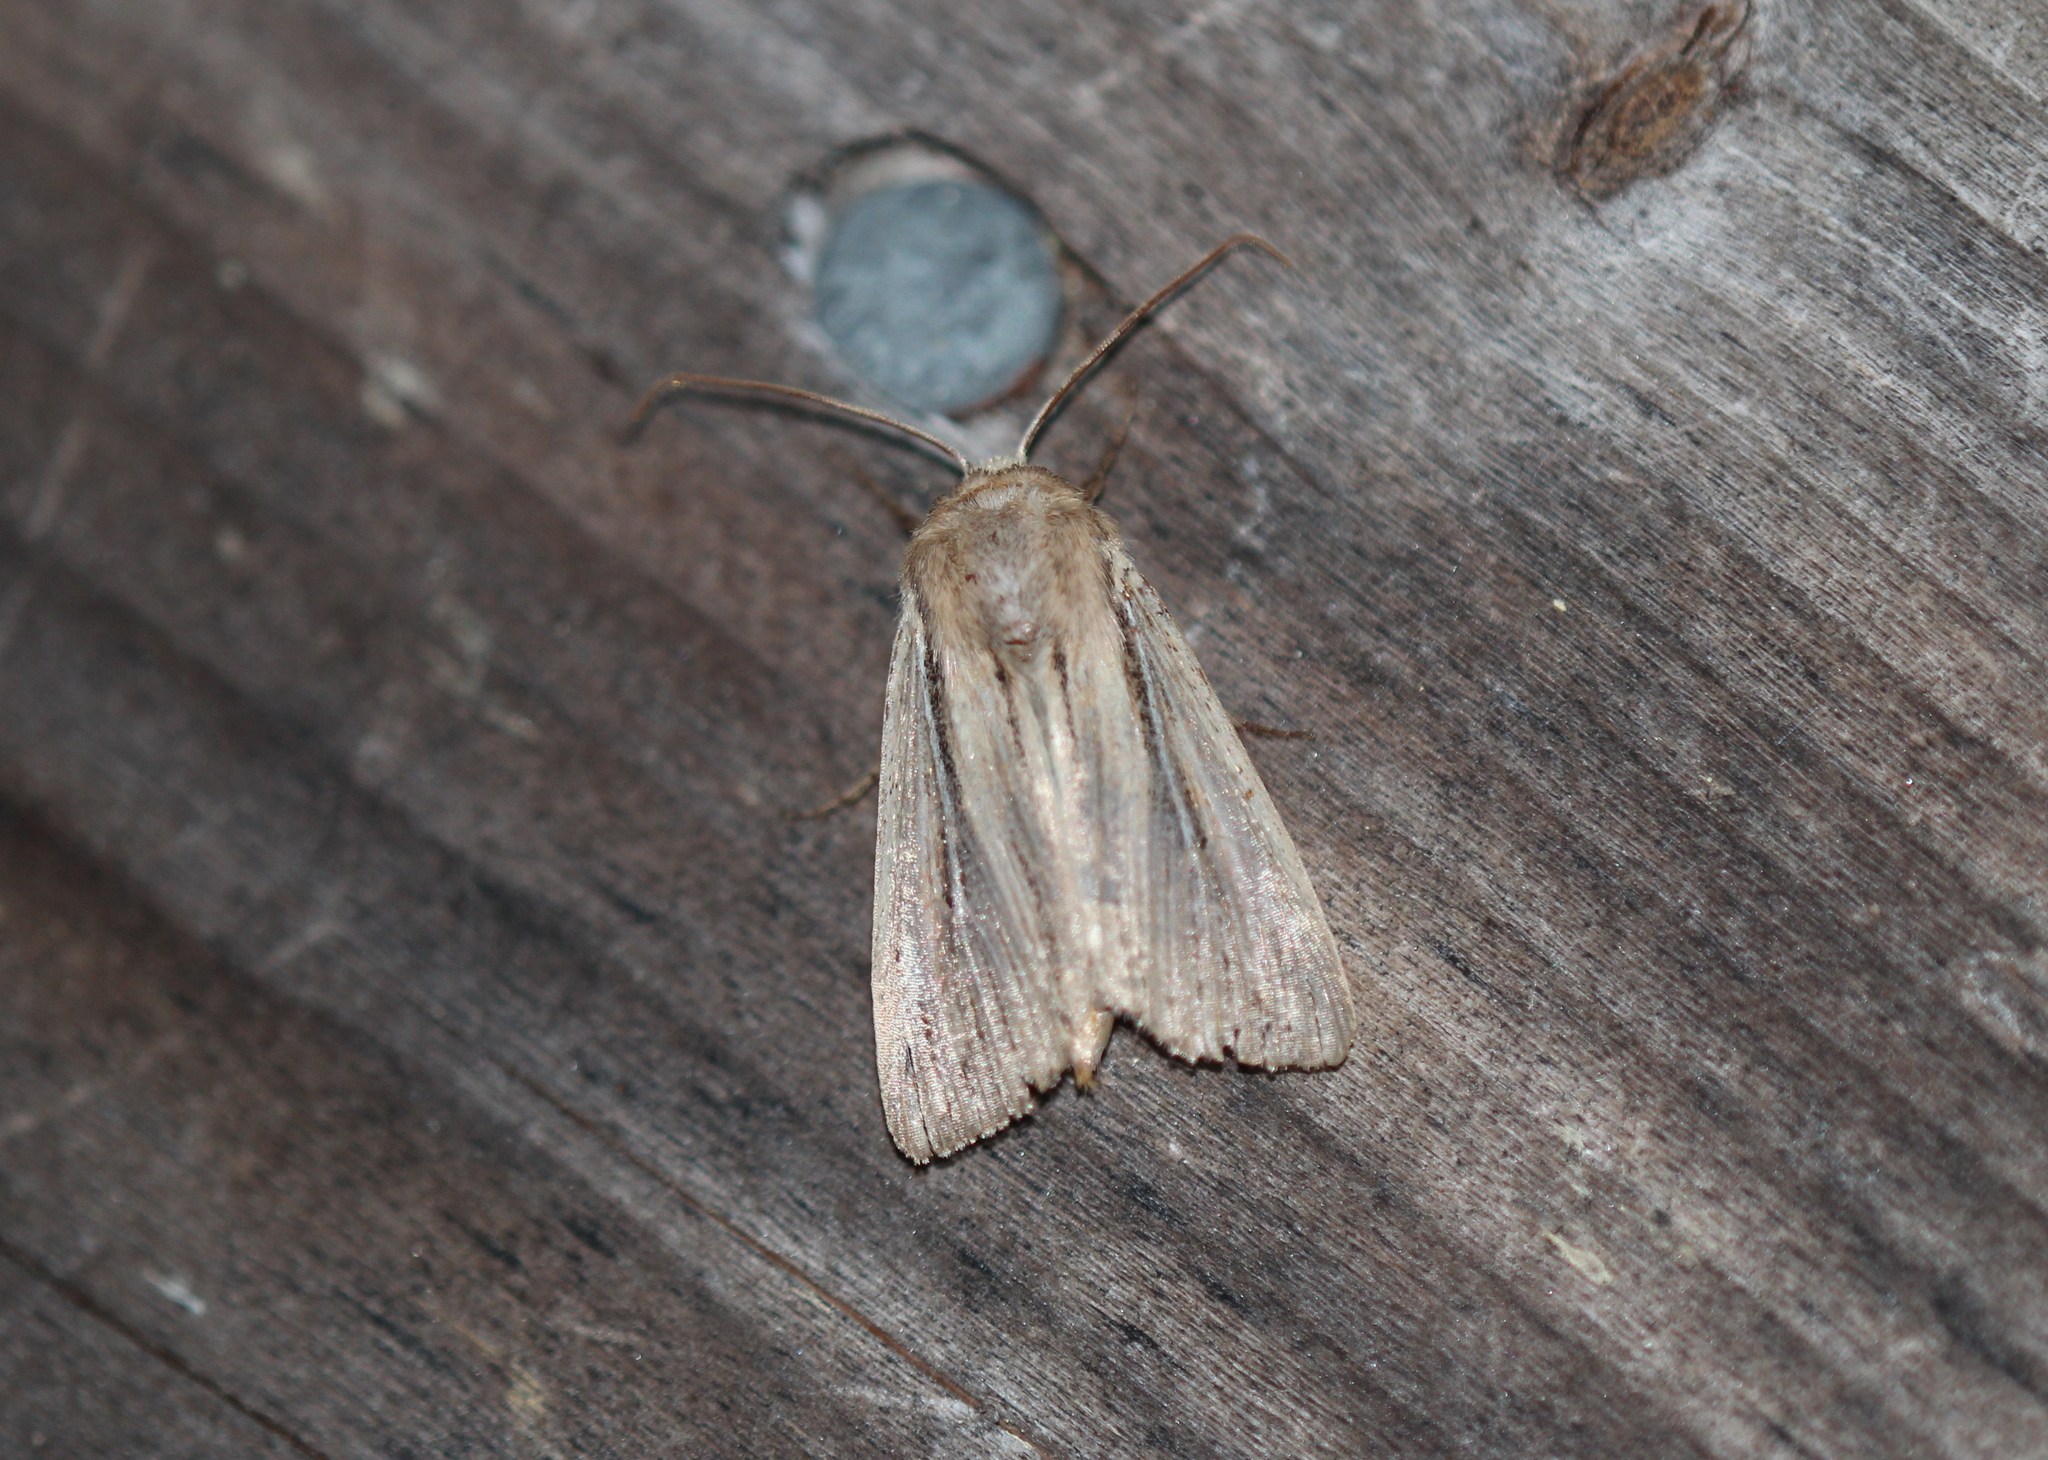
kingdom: Animalia
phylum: Arthropoda
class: Insecta
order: Lepidoptera
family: Noctuidae
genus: Leucania
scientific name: Leucania commoides
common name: Two-lined wainscot
